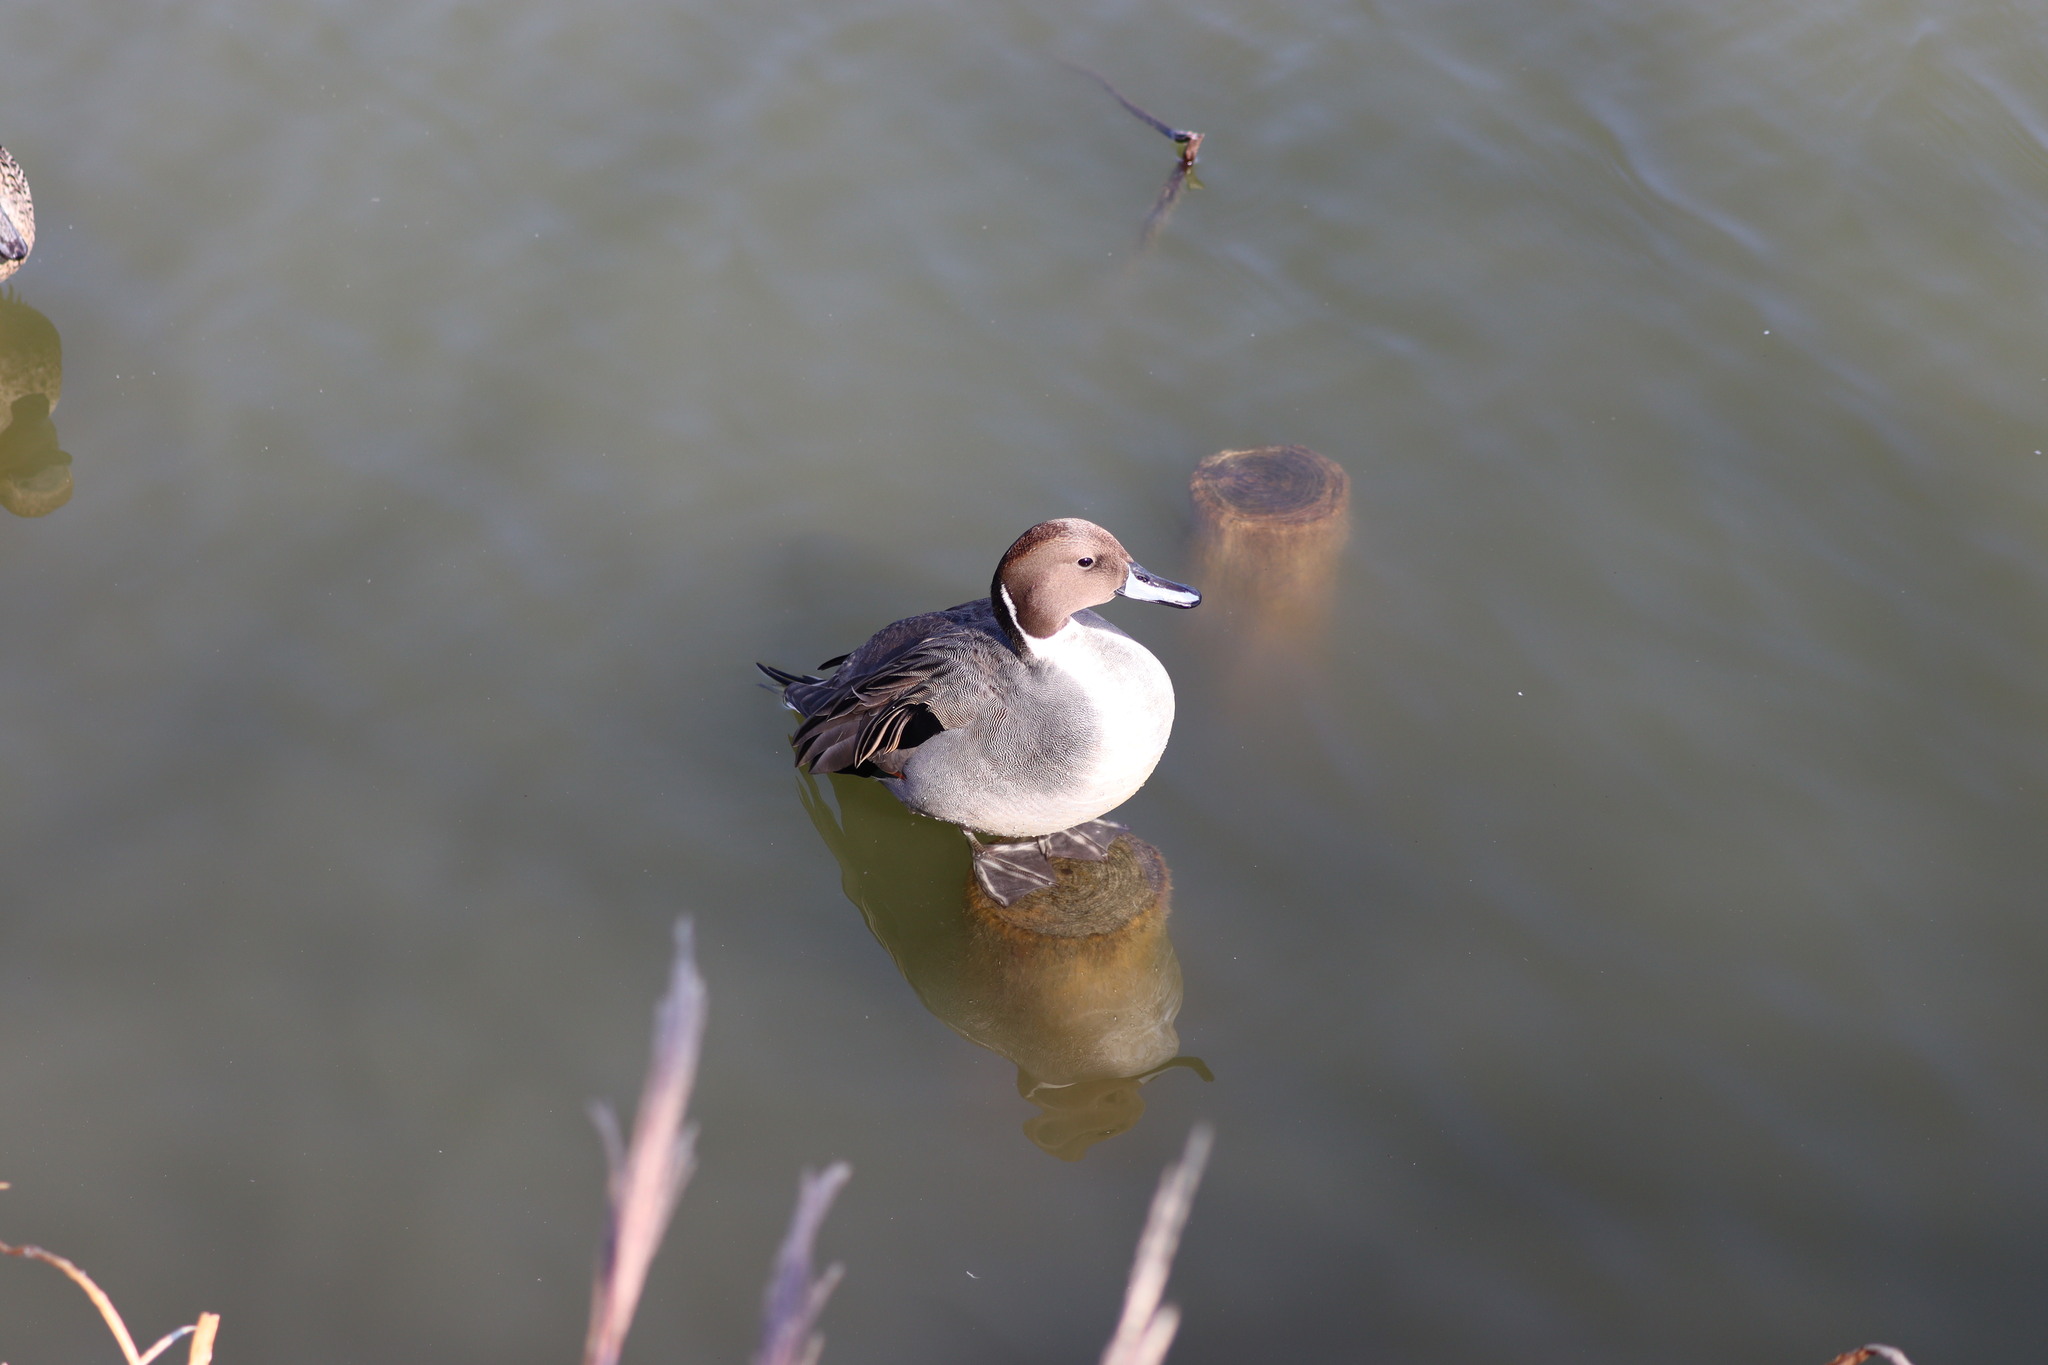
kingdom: Animalia
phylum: Chordata
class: Aves
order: Anseriformes
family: Anatidae
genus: Anas
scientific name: Anas acuta
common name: Northern pintail
